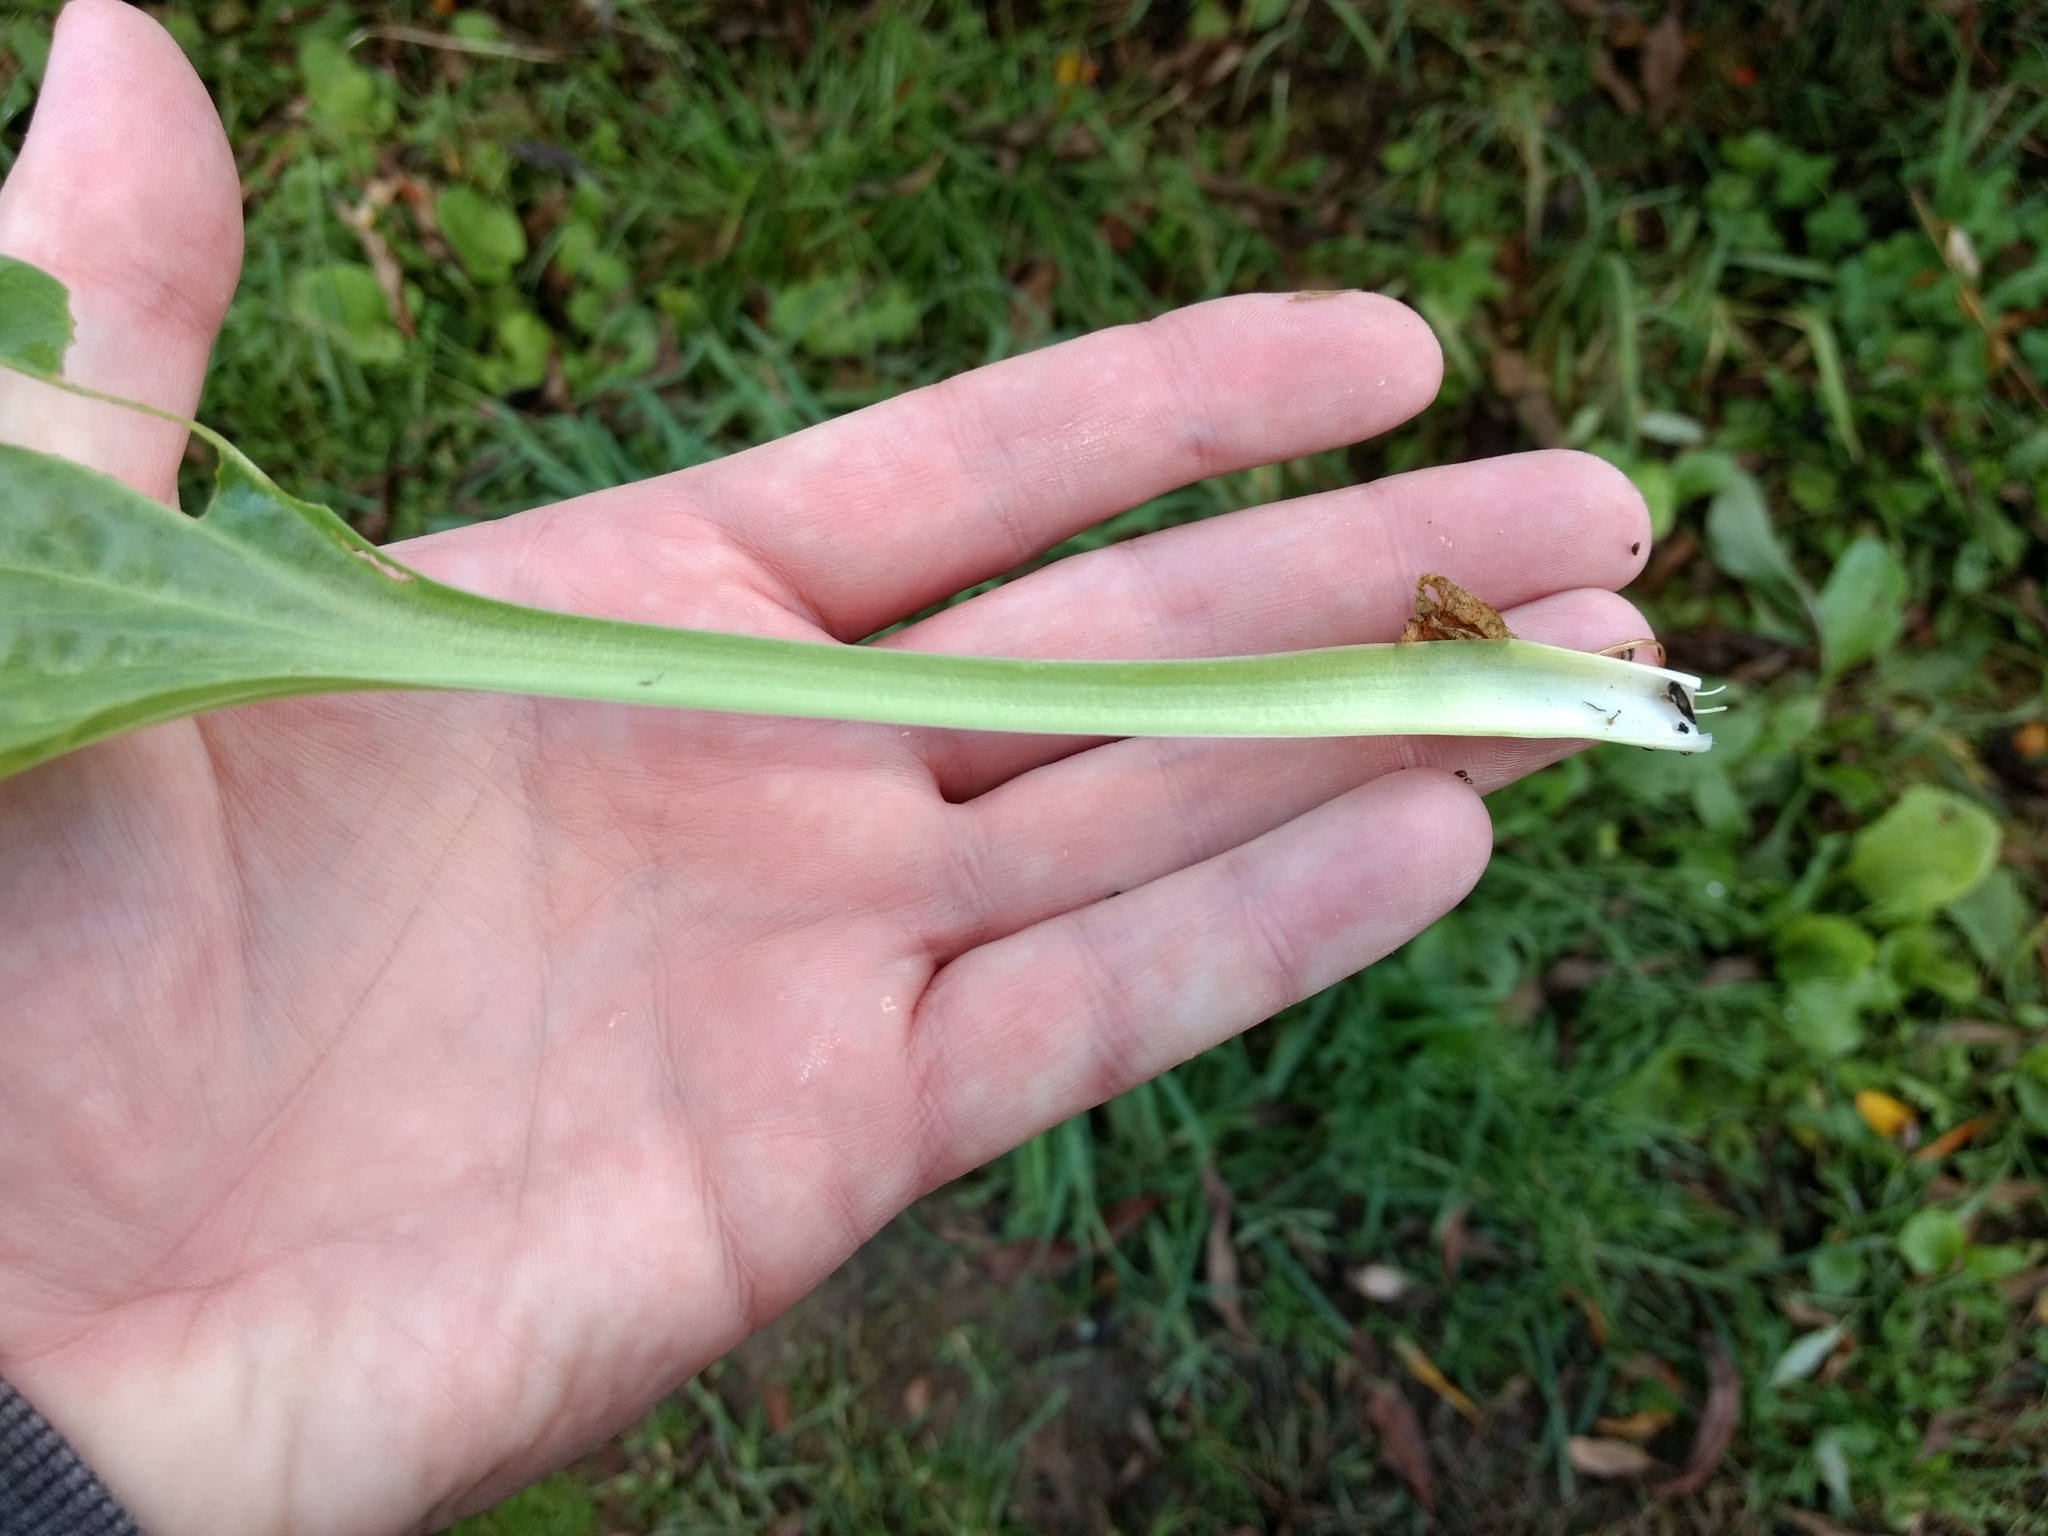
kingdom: Plantae
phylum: Tracheophyta
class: Magnoliopsida
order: Lamiales
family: Plantaginaceae
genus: Plantago
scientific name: Plantago major
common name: Common plantain
